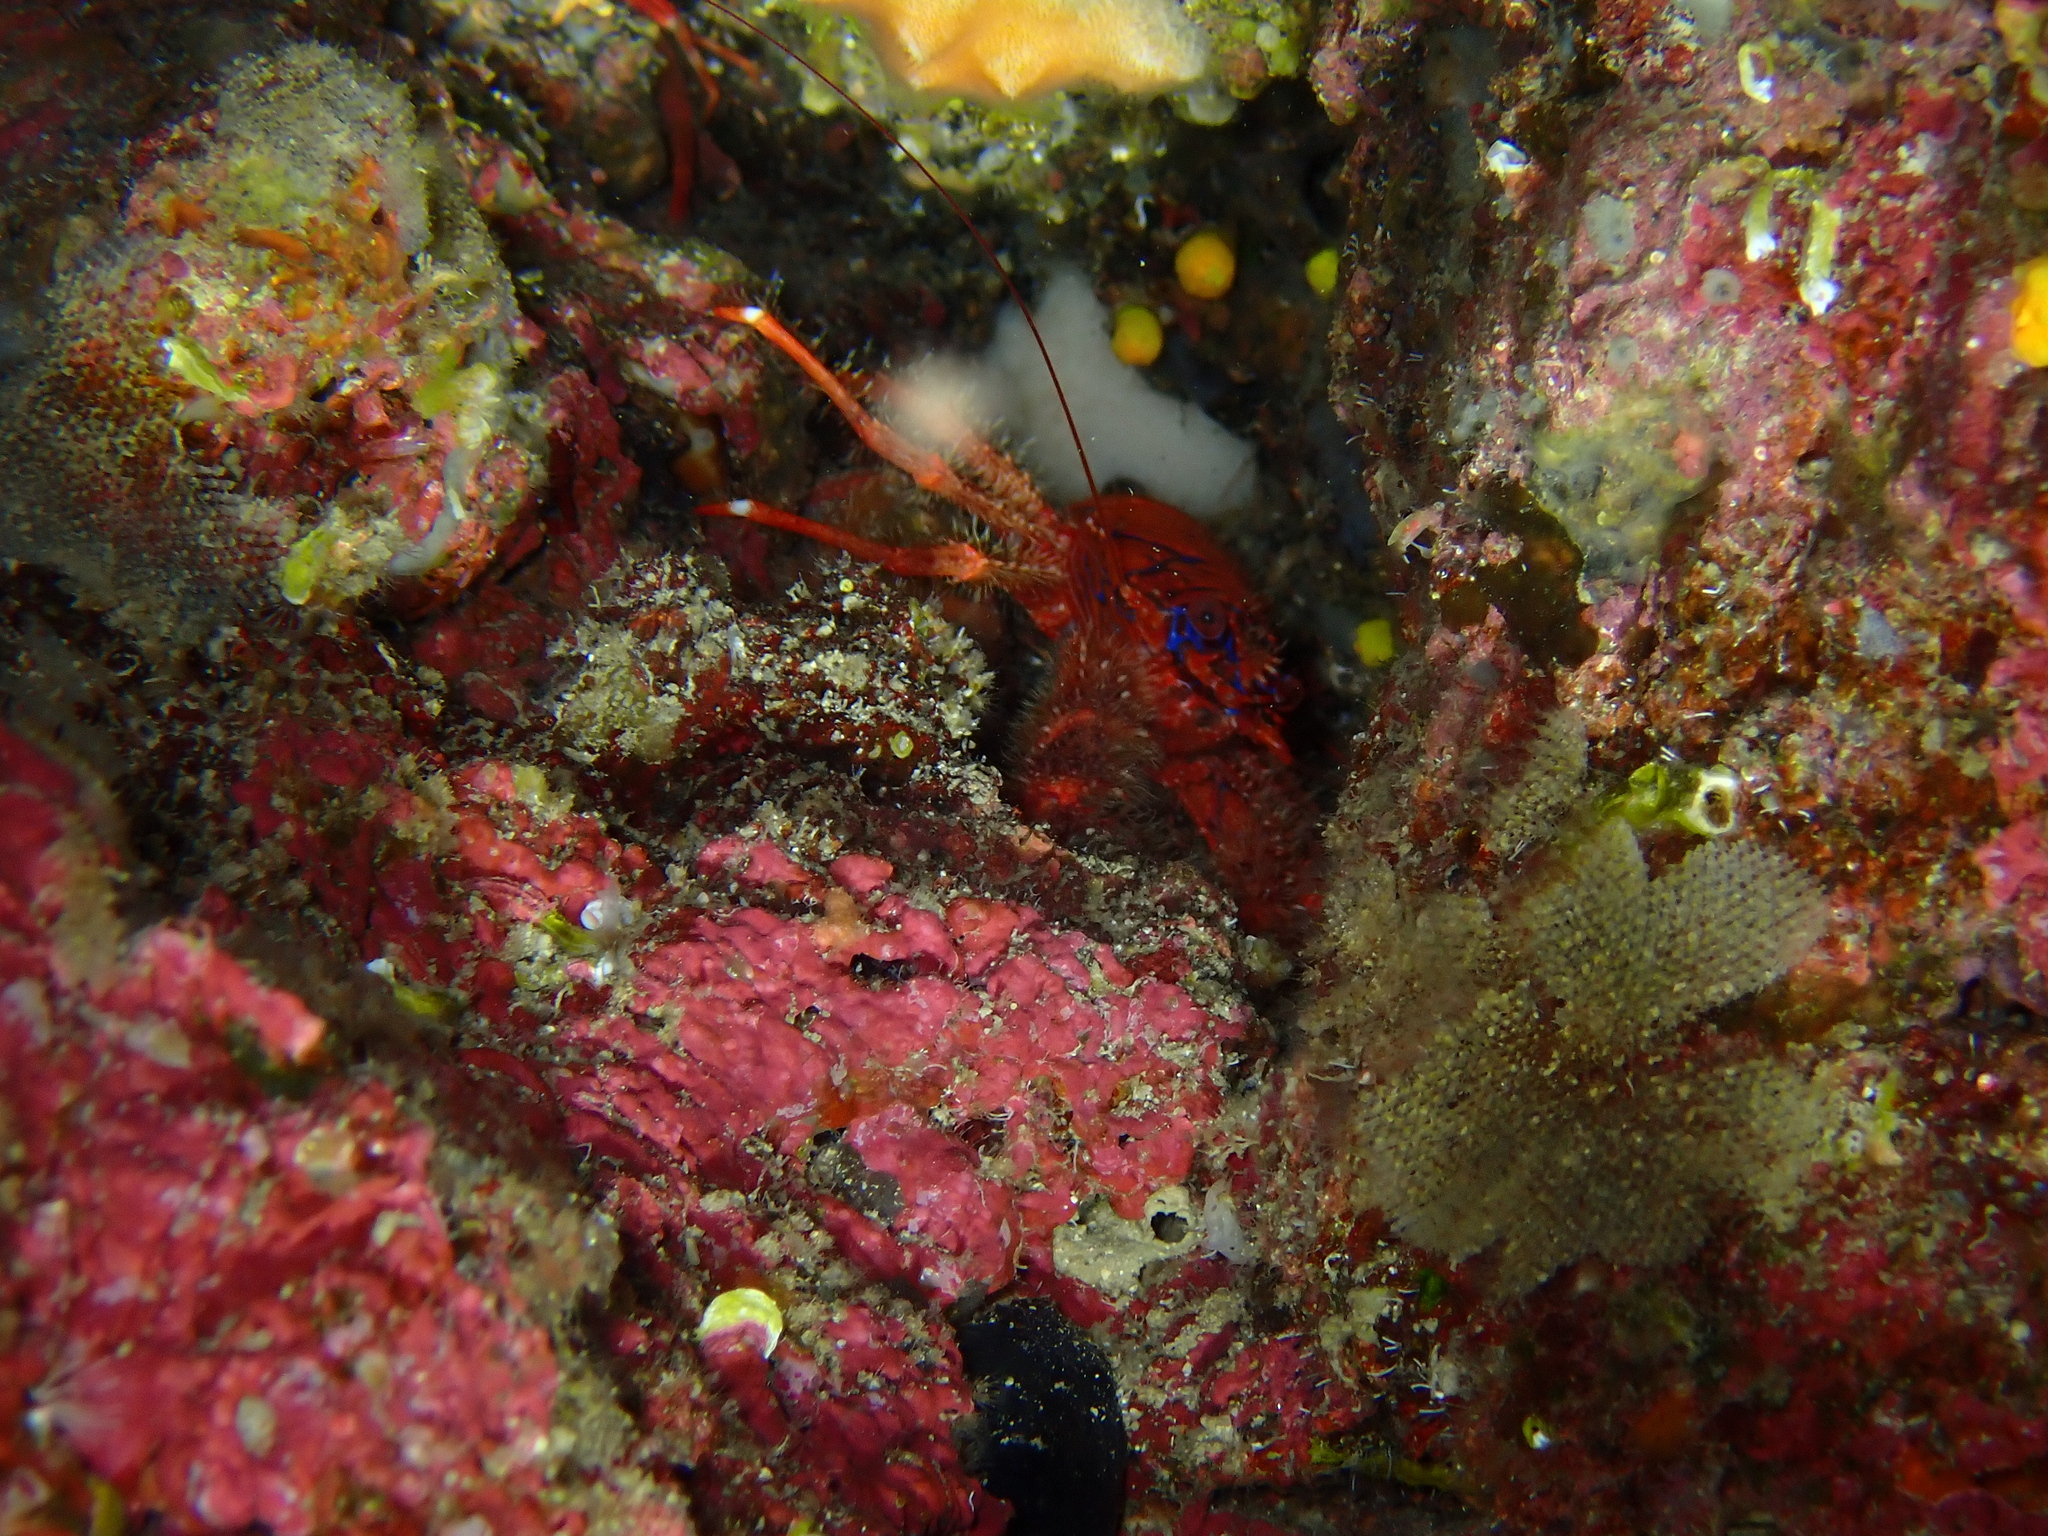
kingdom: Animalia
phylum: Arthropoda
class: Malacostraca
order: Decapoda
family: Galatheidae
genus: Galathea
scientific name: Galathea strigosa
